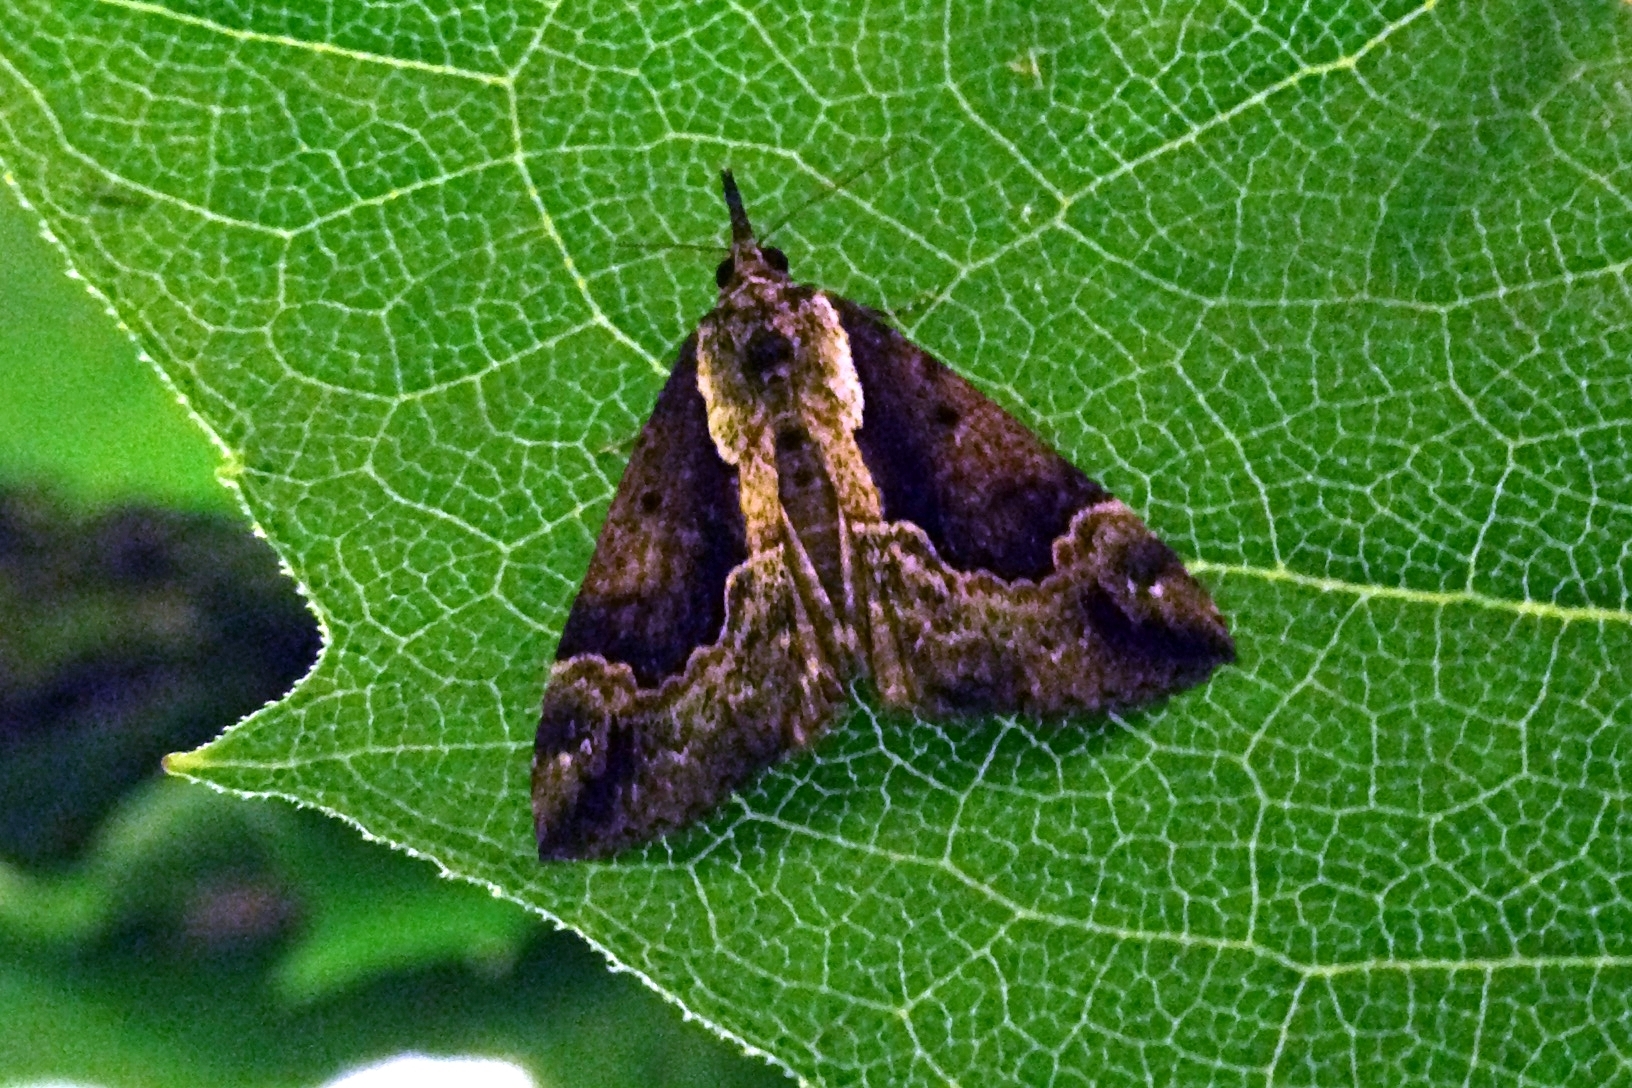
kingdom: Animalia
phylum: Arthropoda
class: Insecta
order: Lepidoptera
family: Erebidae
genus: Hypena
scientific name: Hypena baltimoralis
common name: Baltimore snout
